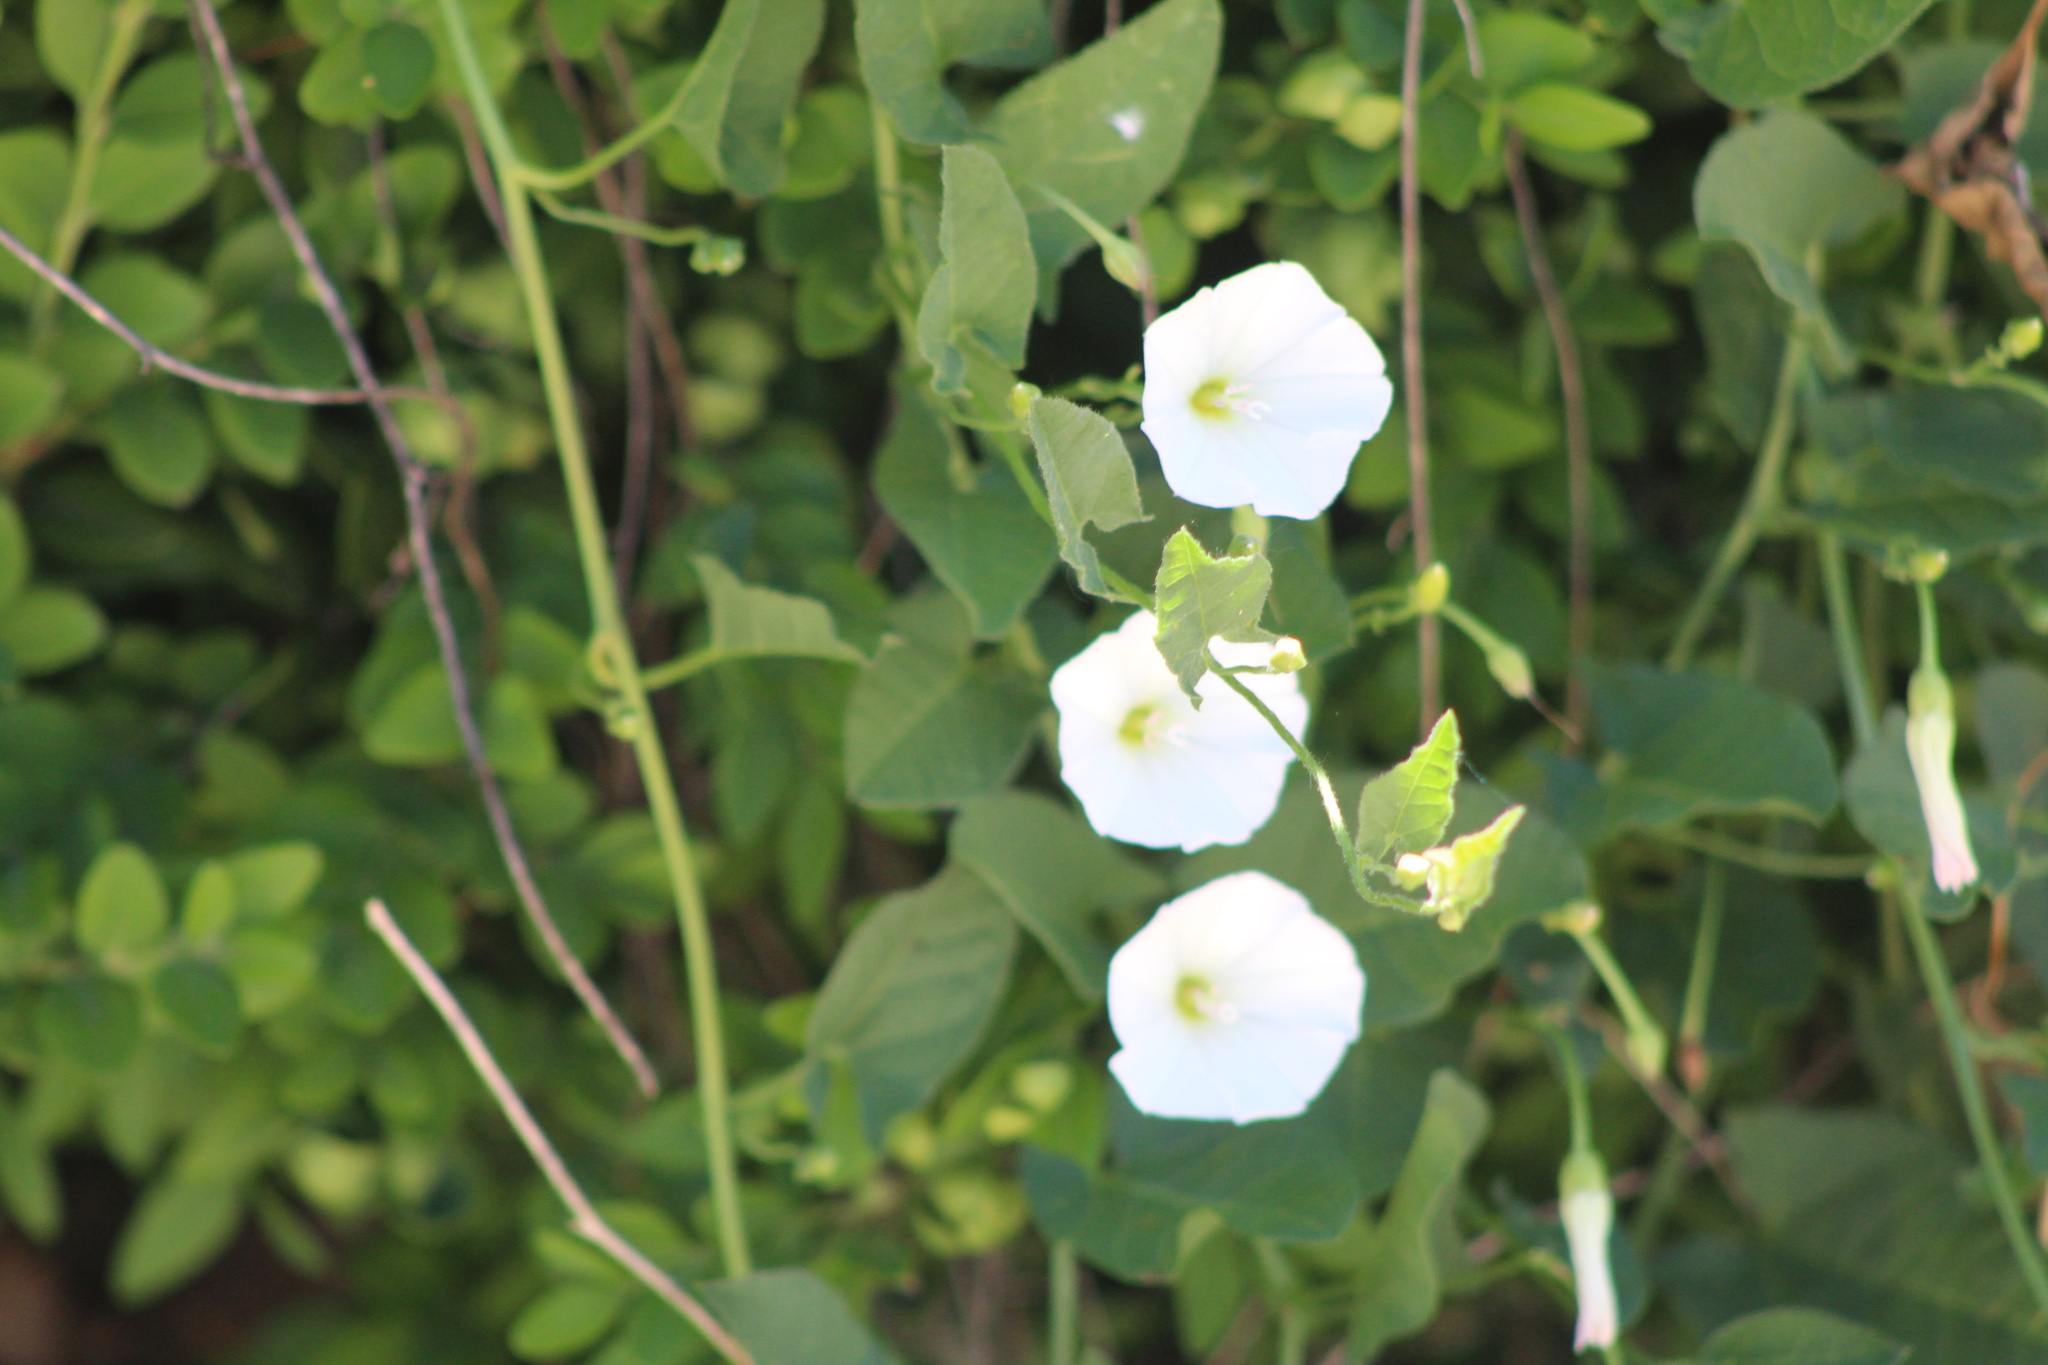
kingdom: Plantae
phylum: Tracheophyta
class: Magnoliopsida
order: Solanales
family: Convolvulaceae
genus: Convolvulus
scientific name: Convolvulus arvensis
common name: Field bindweed
